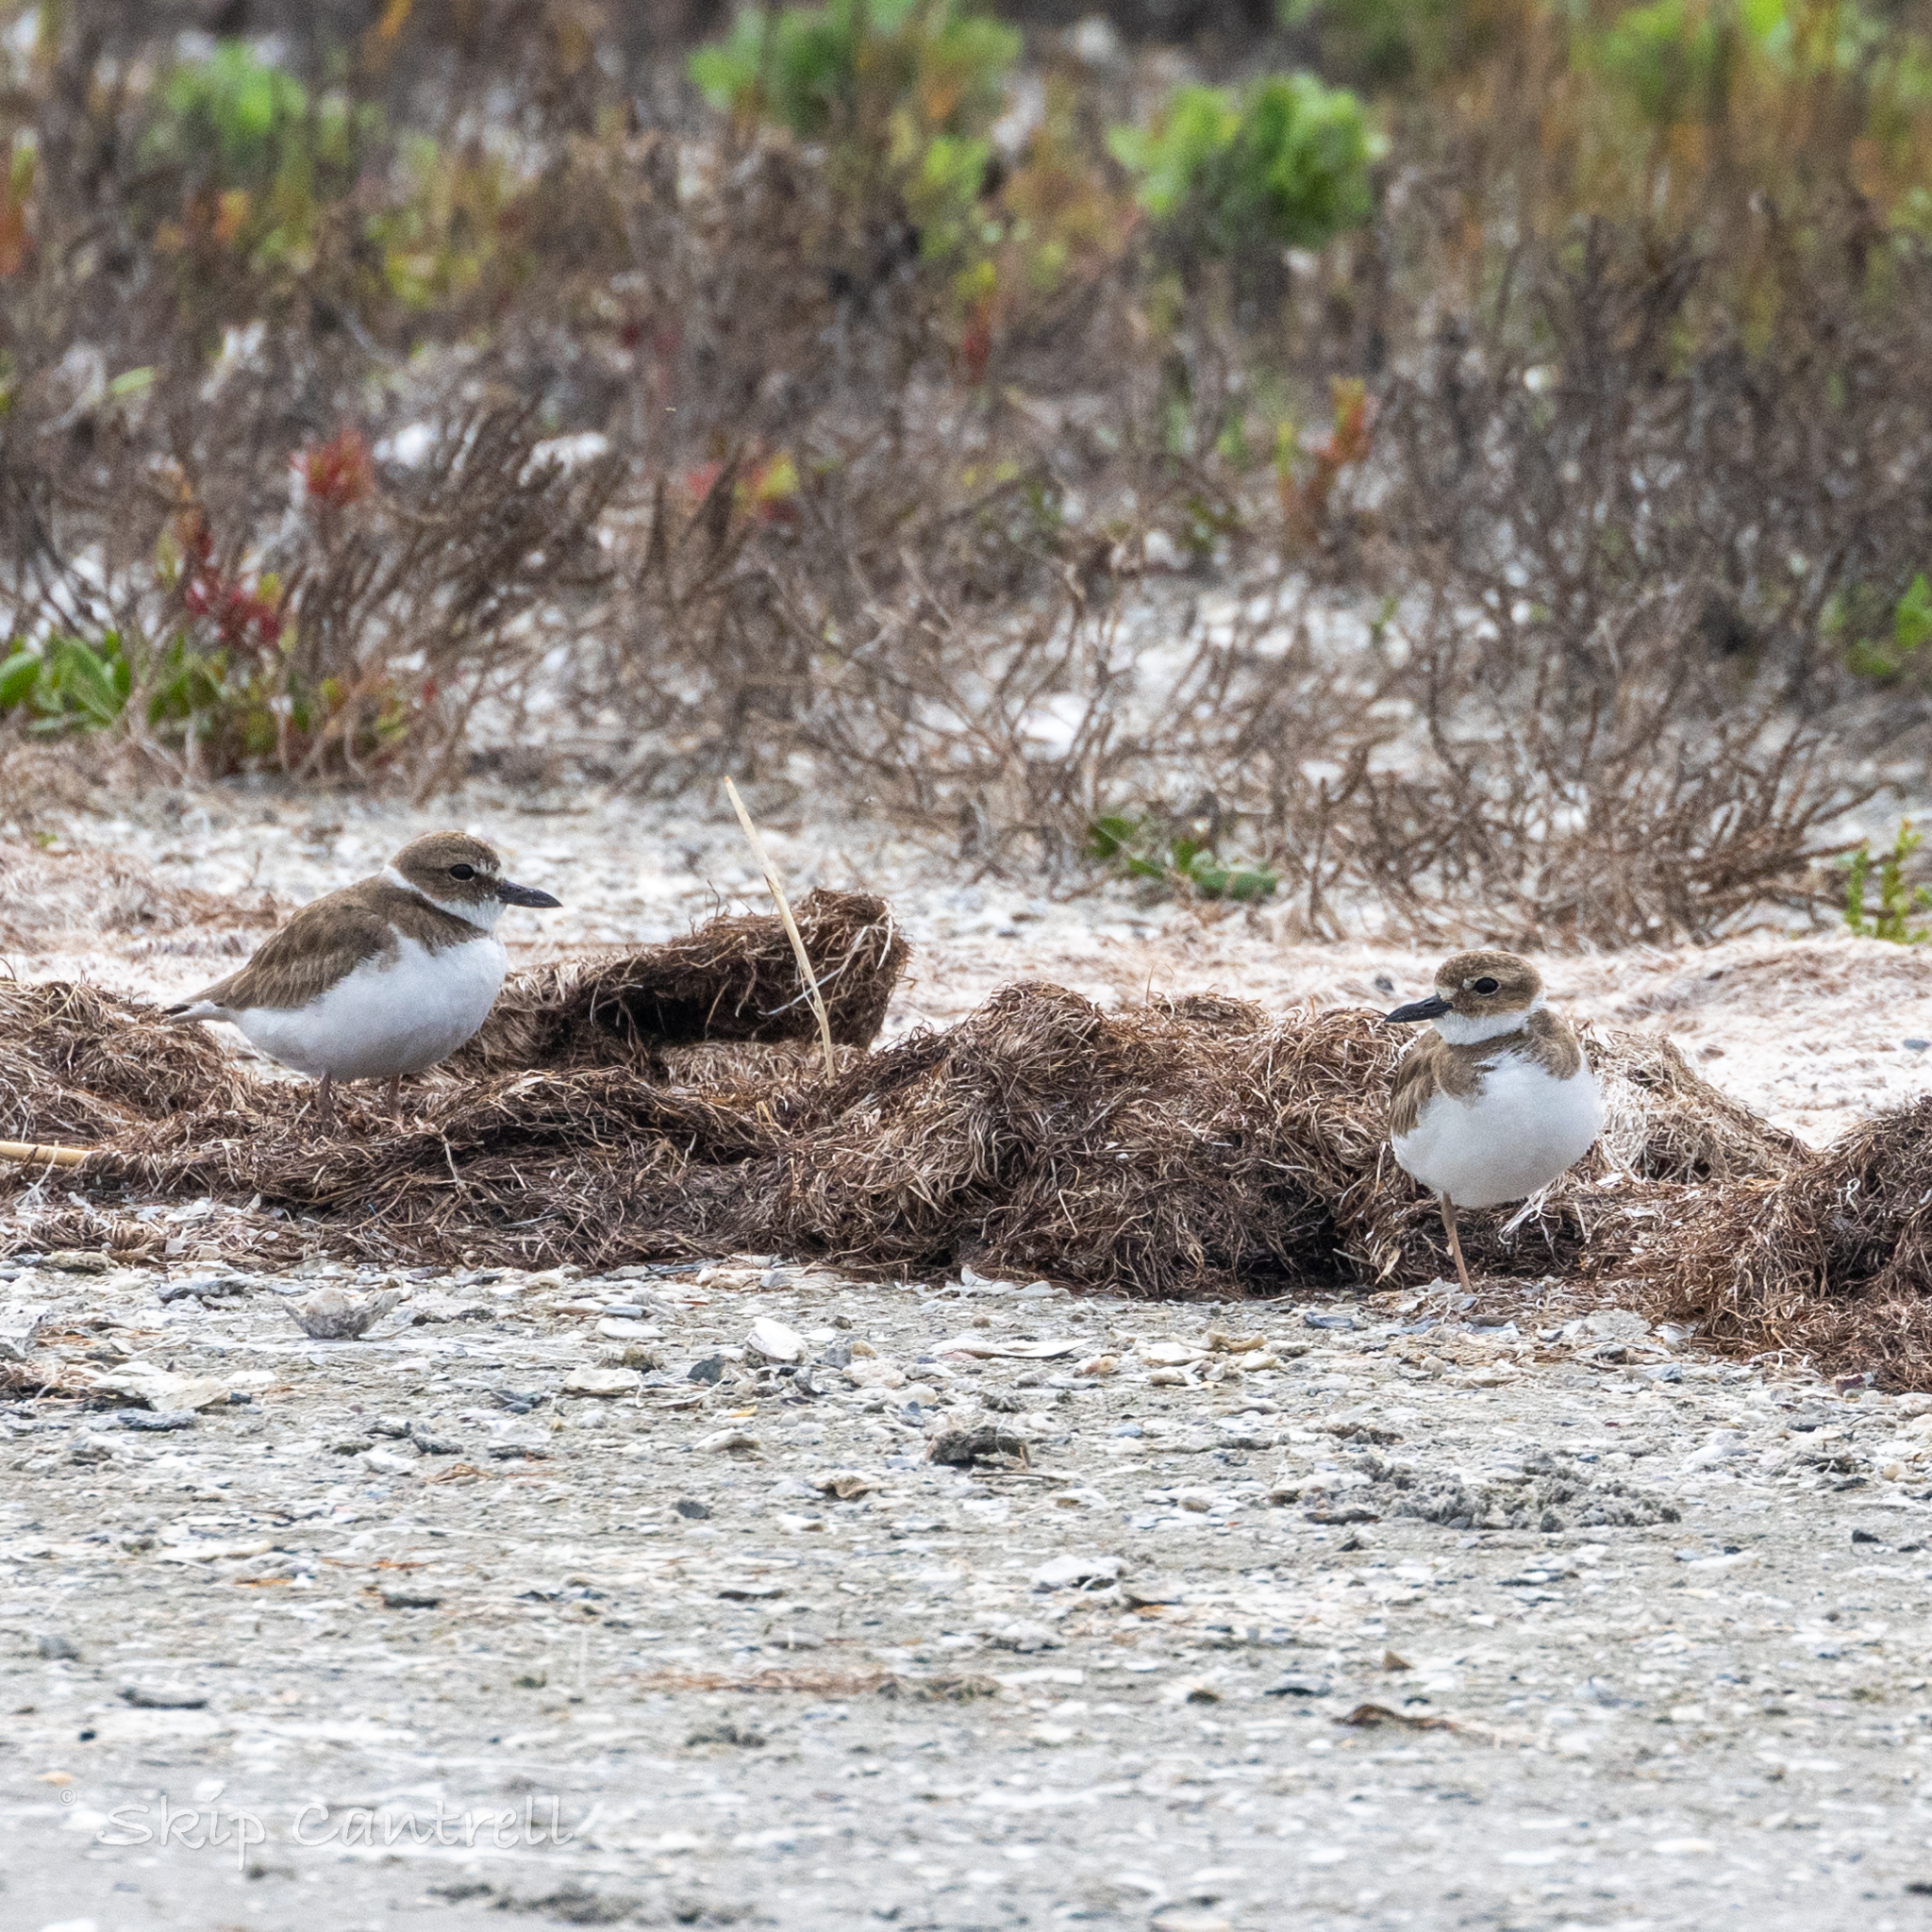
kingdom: Animalia
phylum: Chordata
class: Aves
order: Charadriiformes
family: Charadriidae
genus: Anarhynchus
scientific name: Anarhynchus
